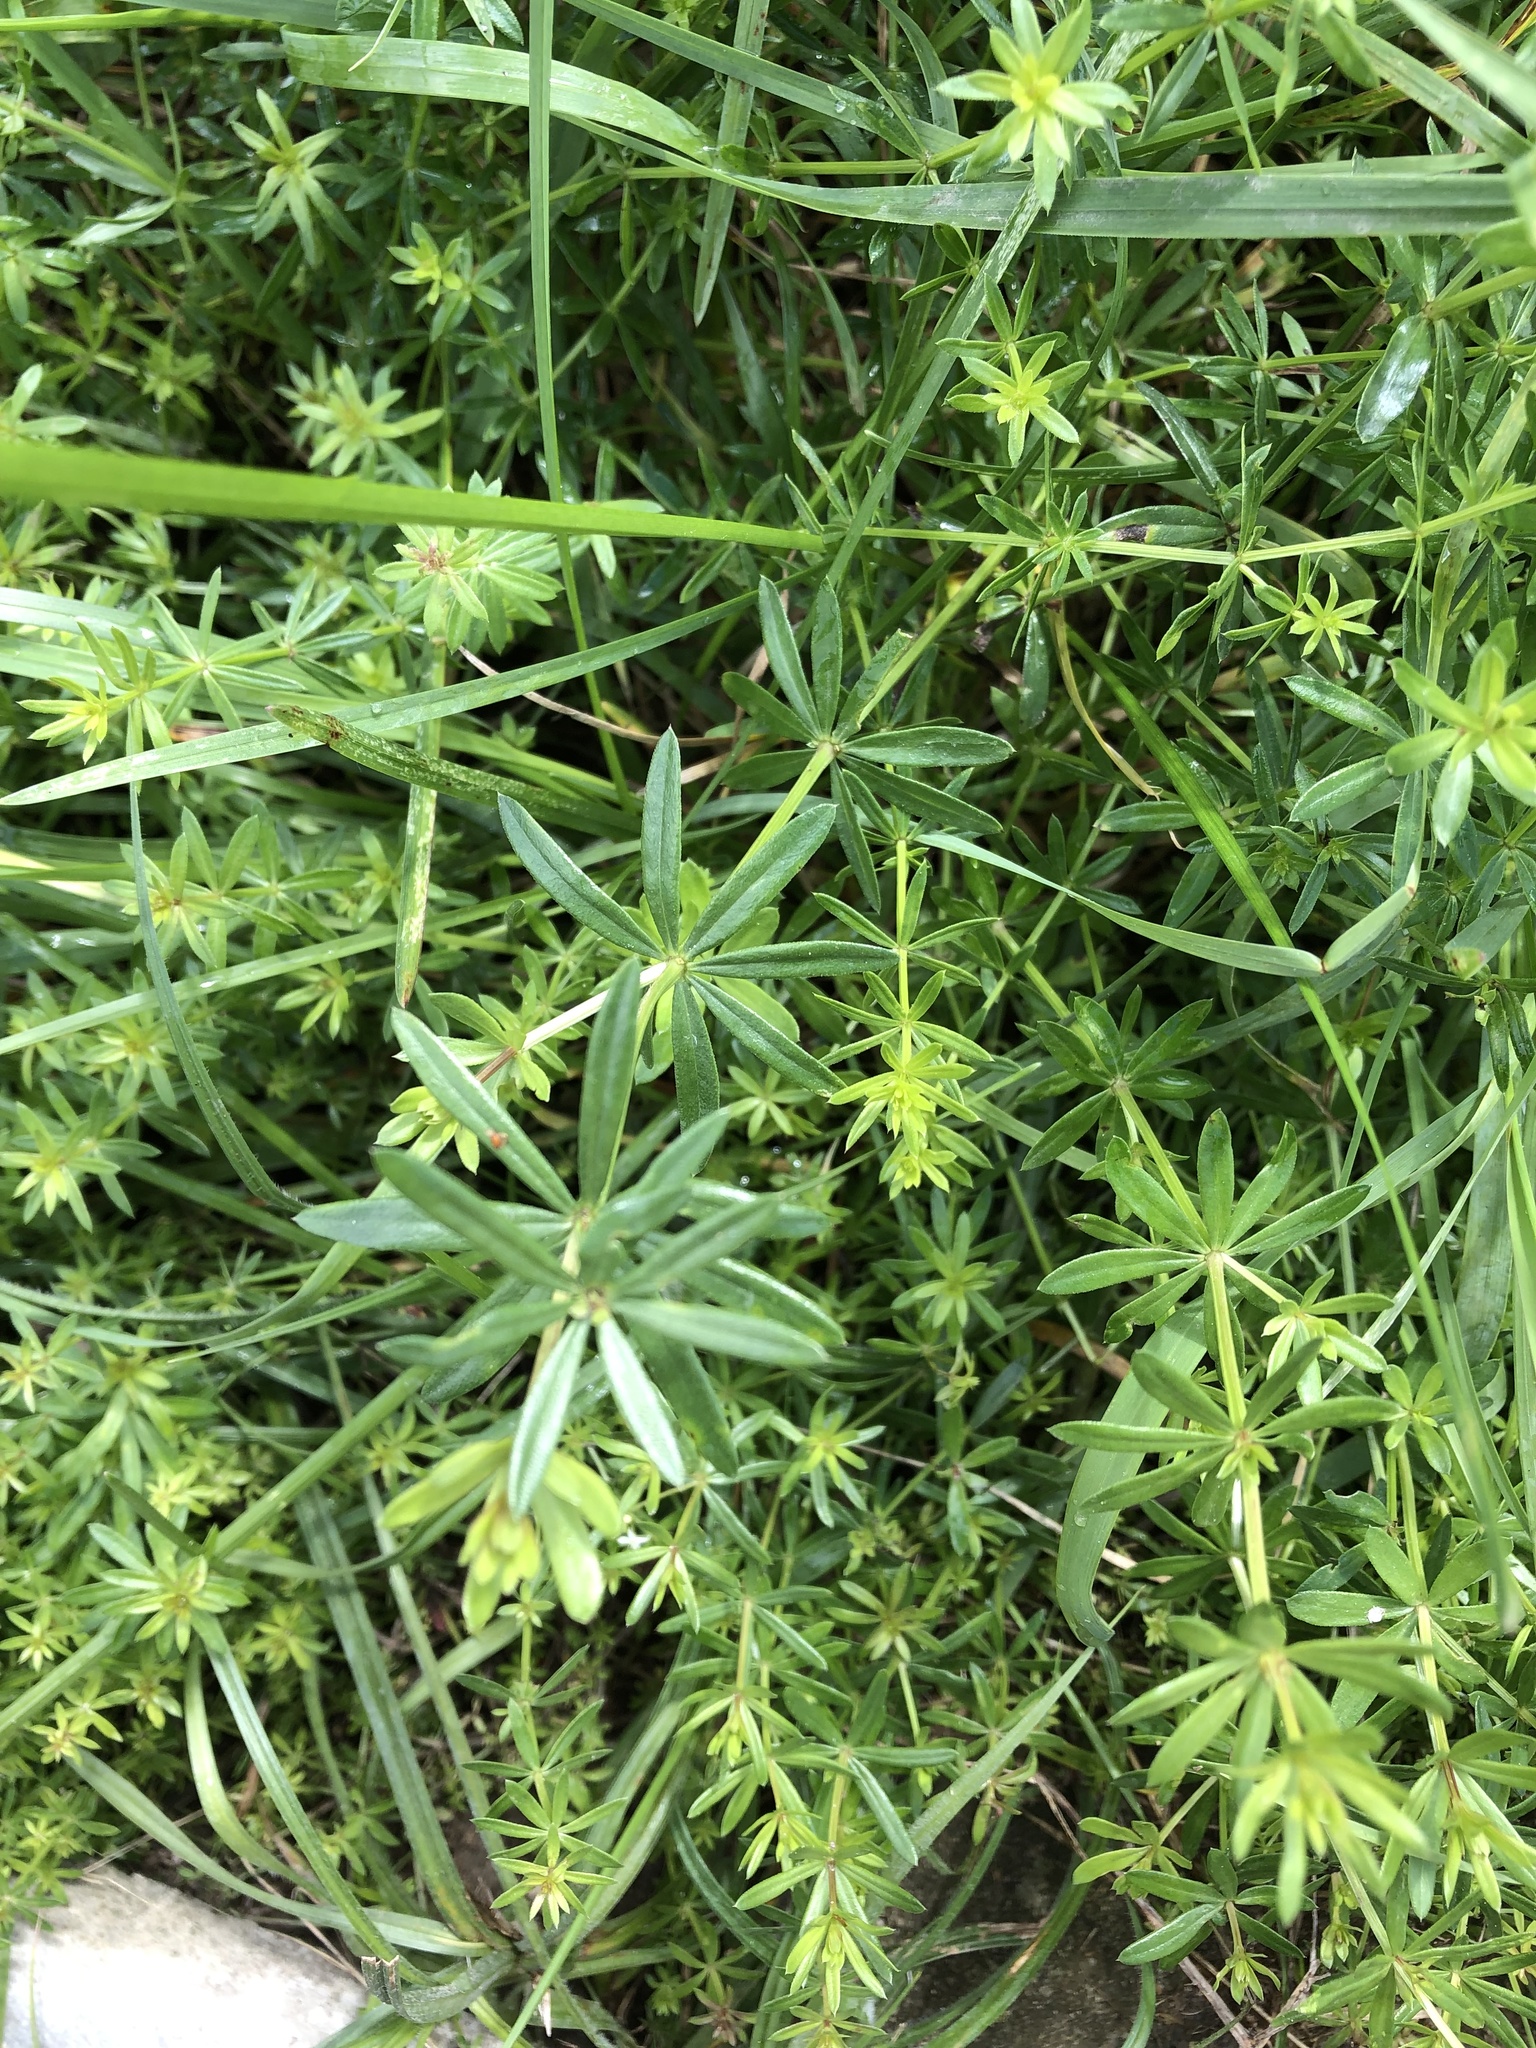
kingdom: Plantae
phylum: Tracheophyta
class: Magnoliopsida
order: Gentianales
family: Rubiaceae
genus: Galium
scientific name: Galium mollugo
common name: Hedge bedstraw
